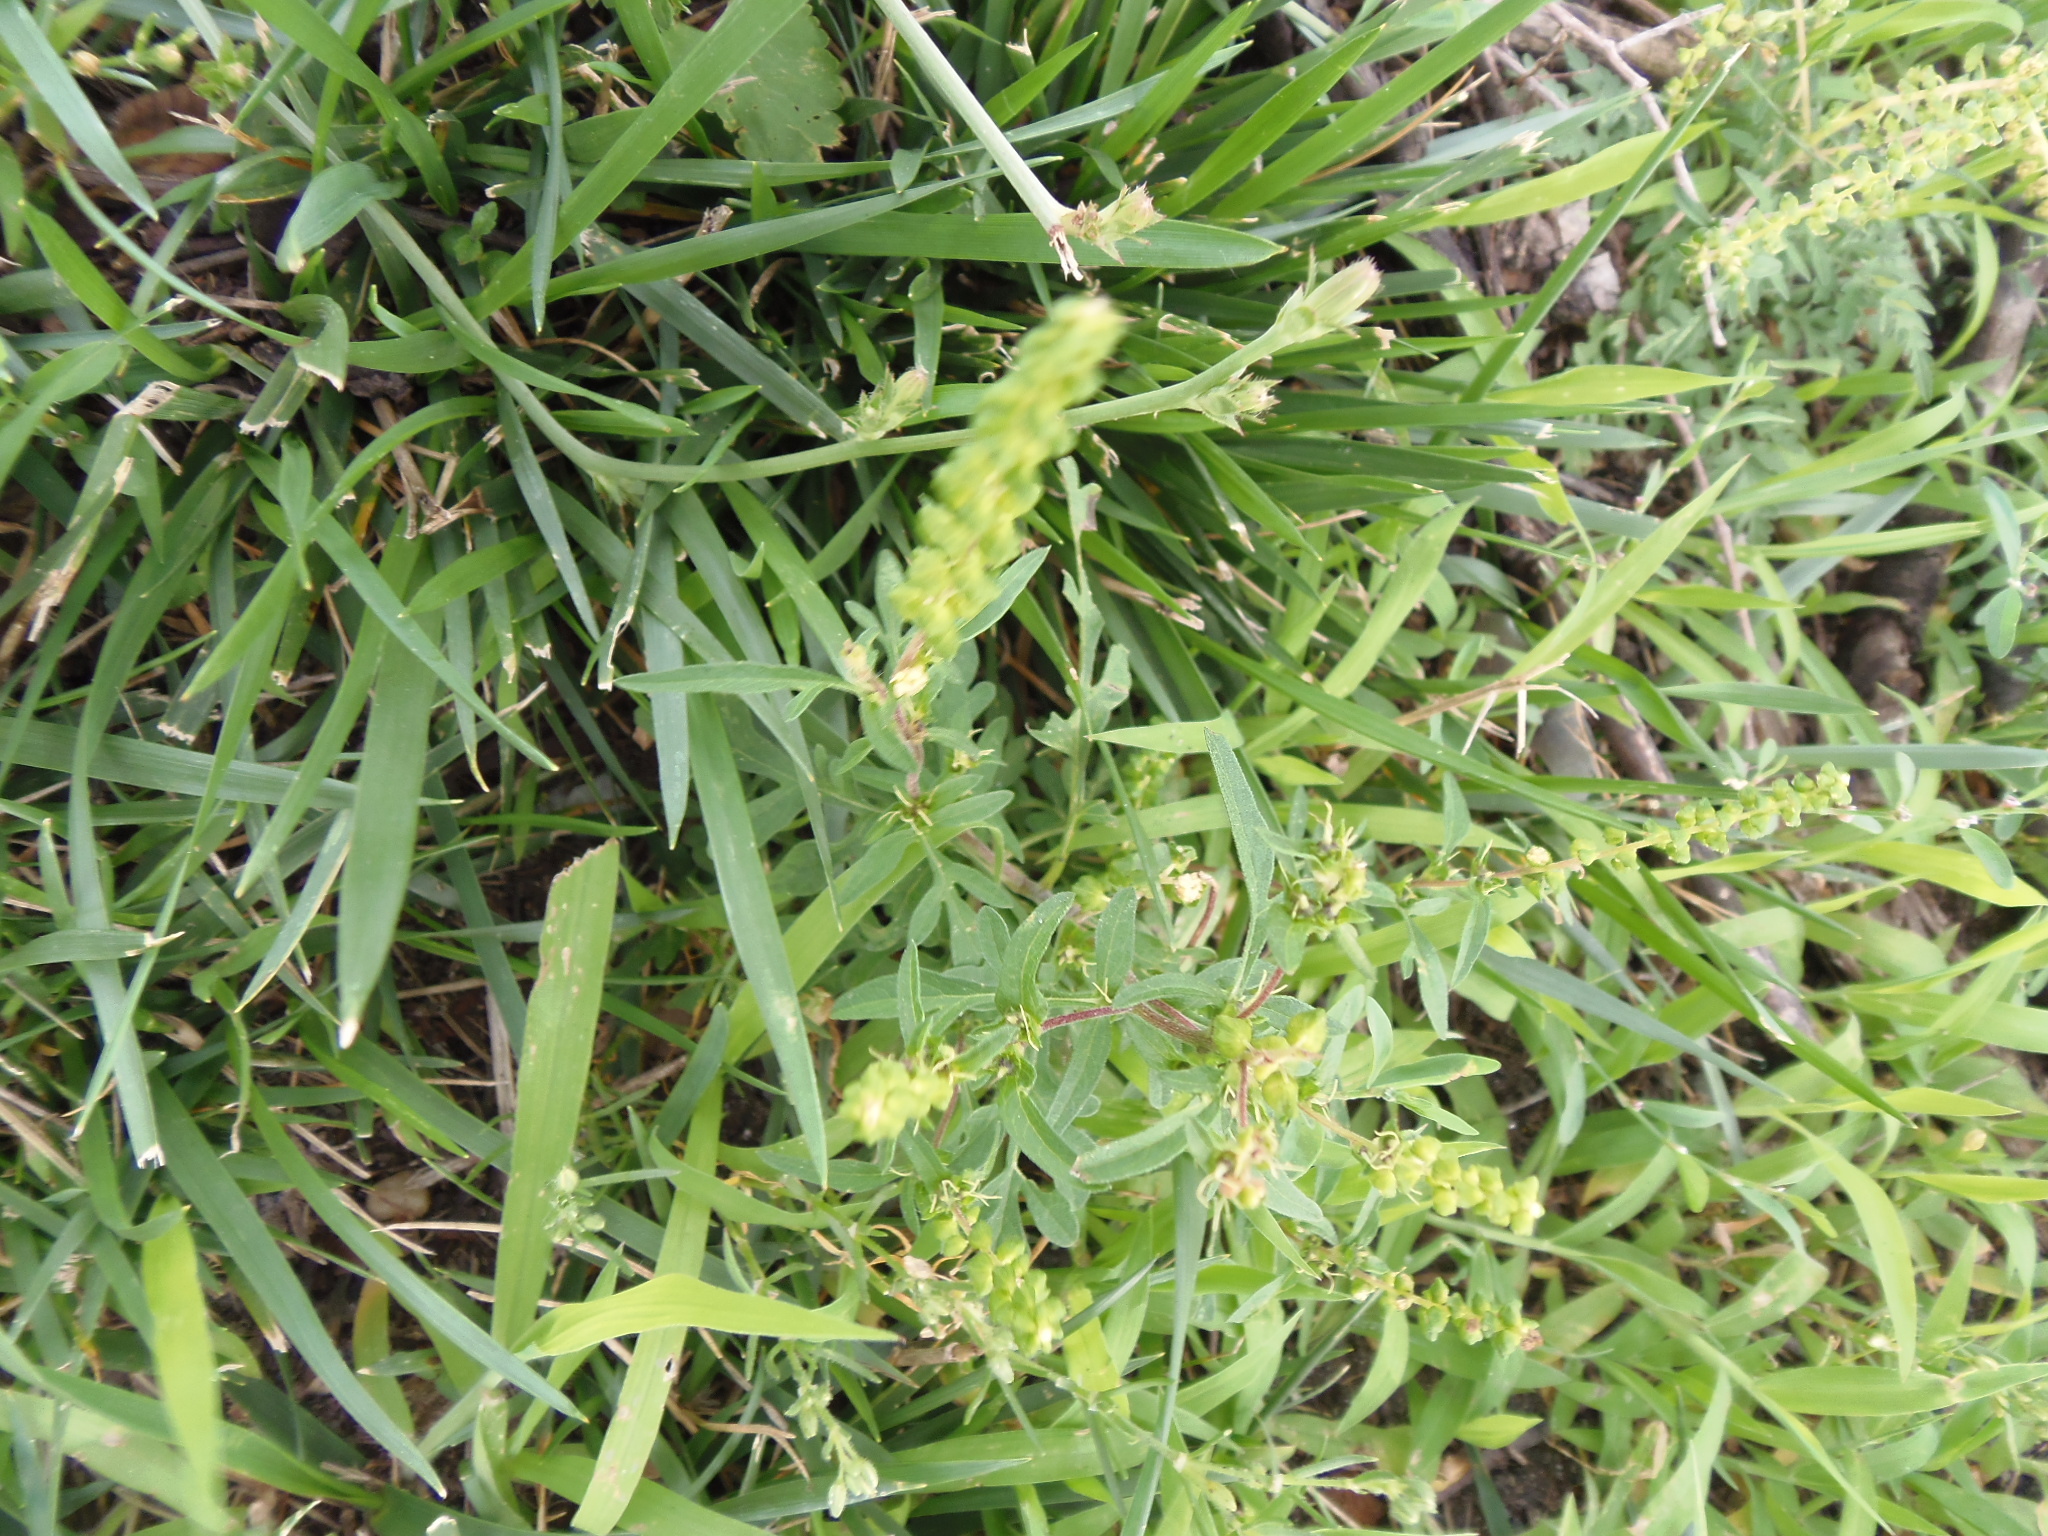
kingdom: Plantae
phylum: Tracheophyta
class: Magnoliopsida
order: Asterales
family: Asteraceae
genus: Ambrosia
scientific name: Ambrosia artemisiifolia
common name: Annual ragweed
